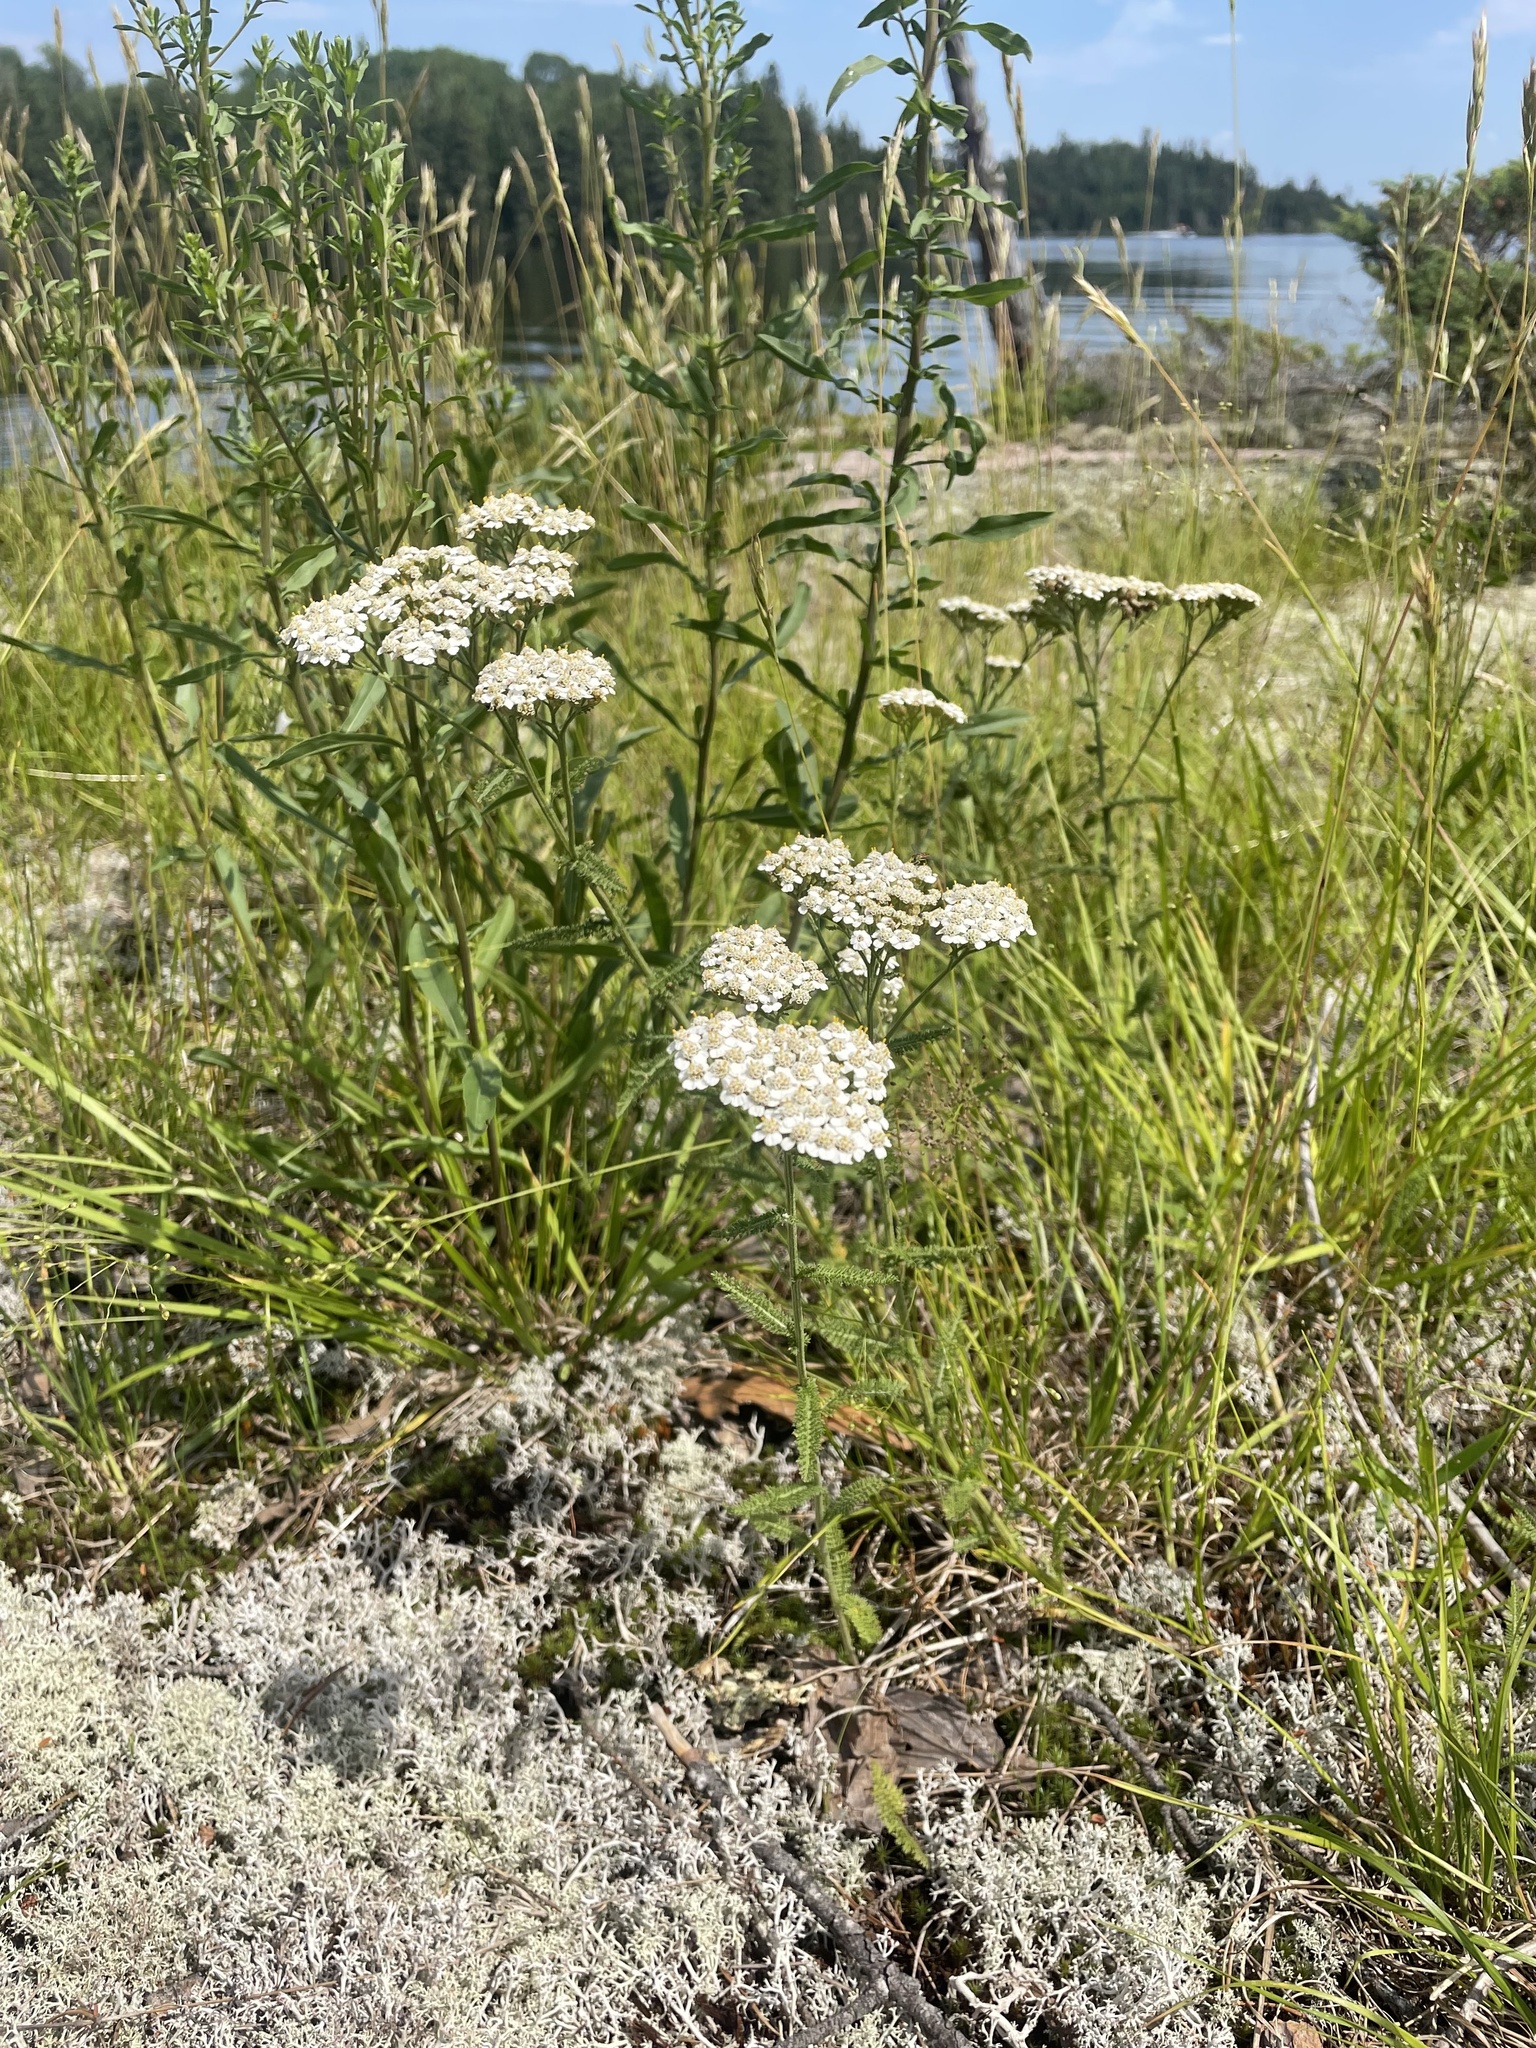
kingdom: Plantae
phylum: Tracheophyta
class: Magnoliopsida
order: Asterales
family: Asteraceae
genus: Achillea
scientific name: Achillea millefolium
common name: Yarrow
